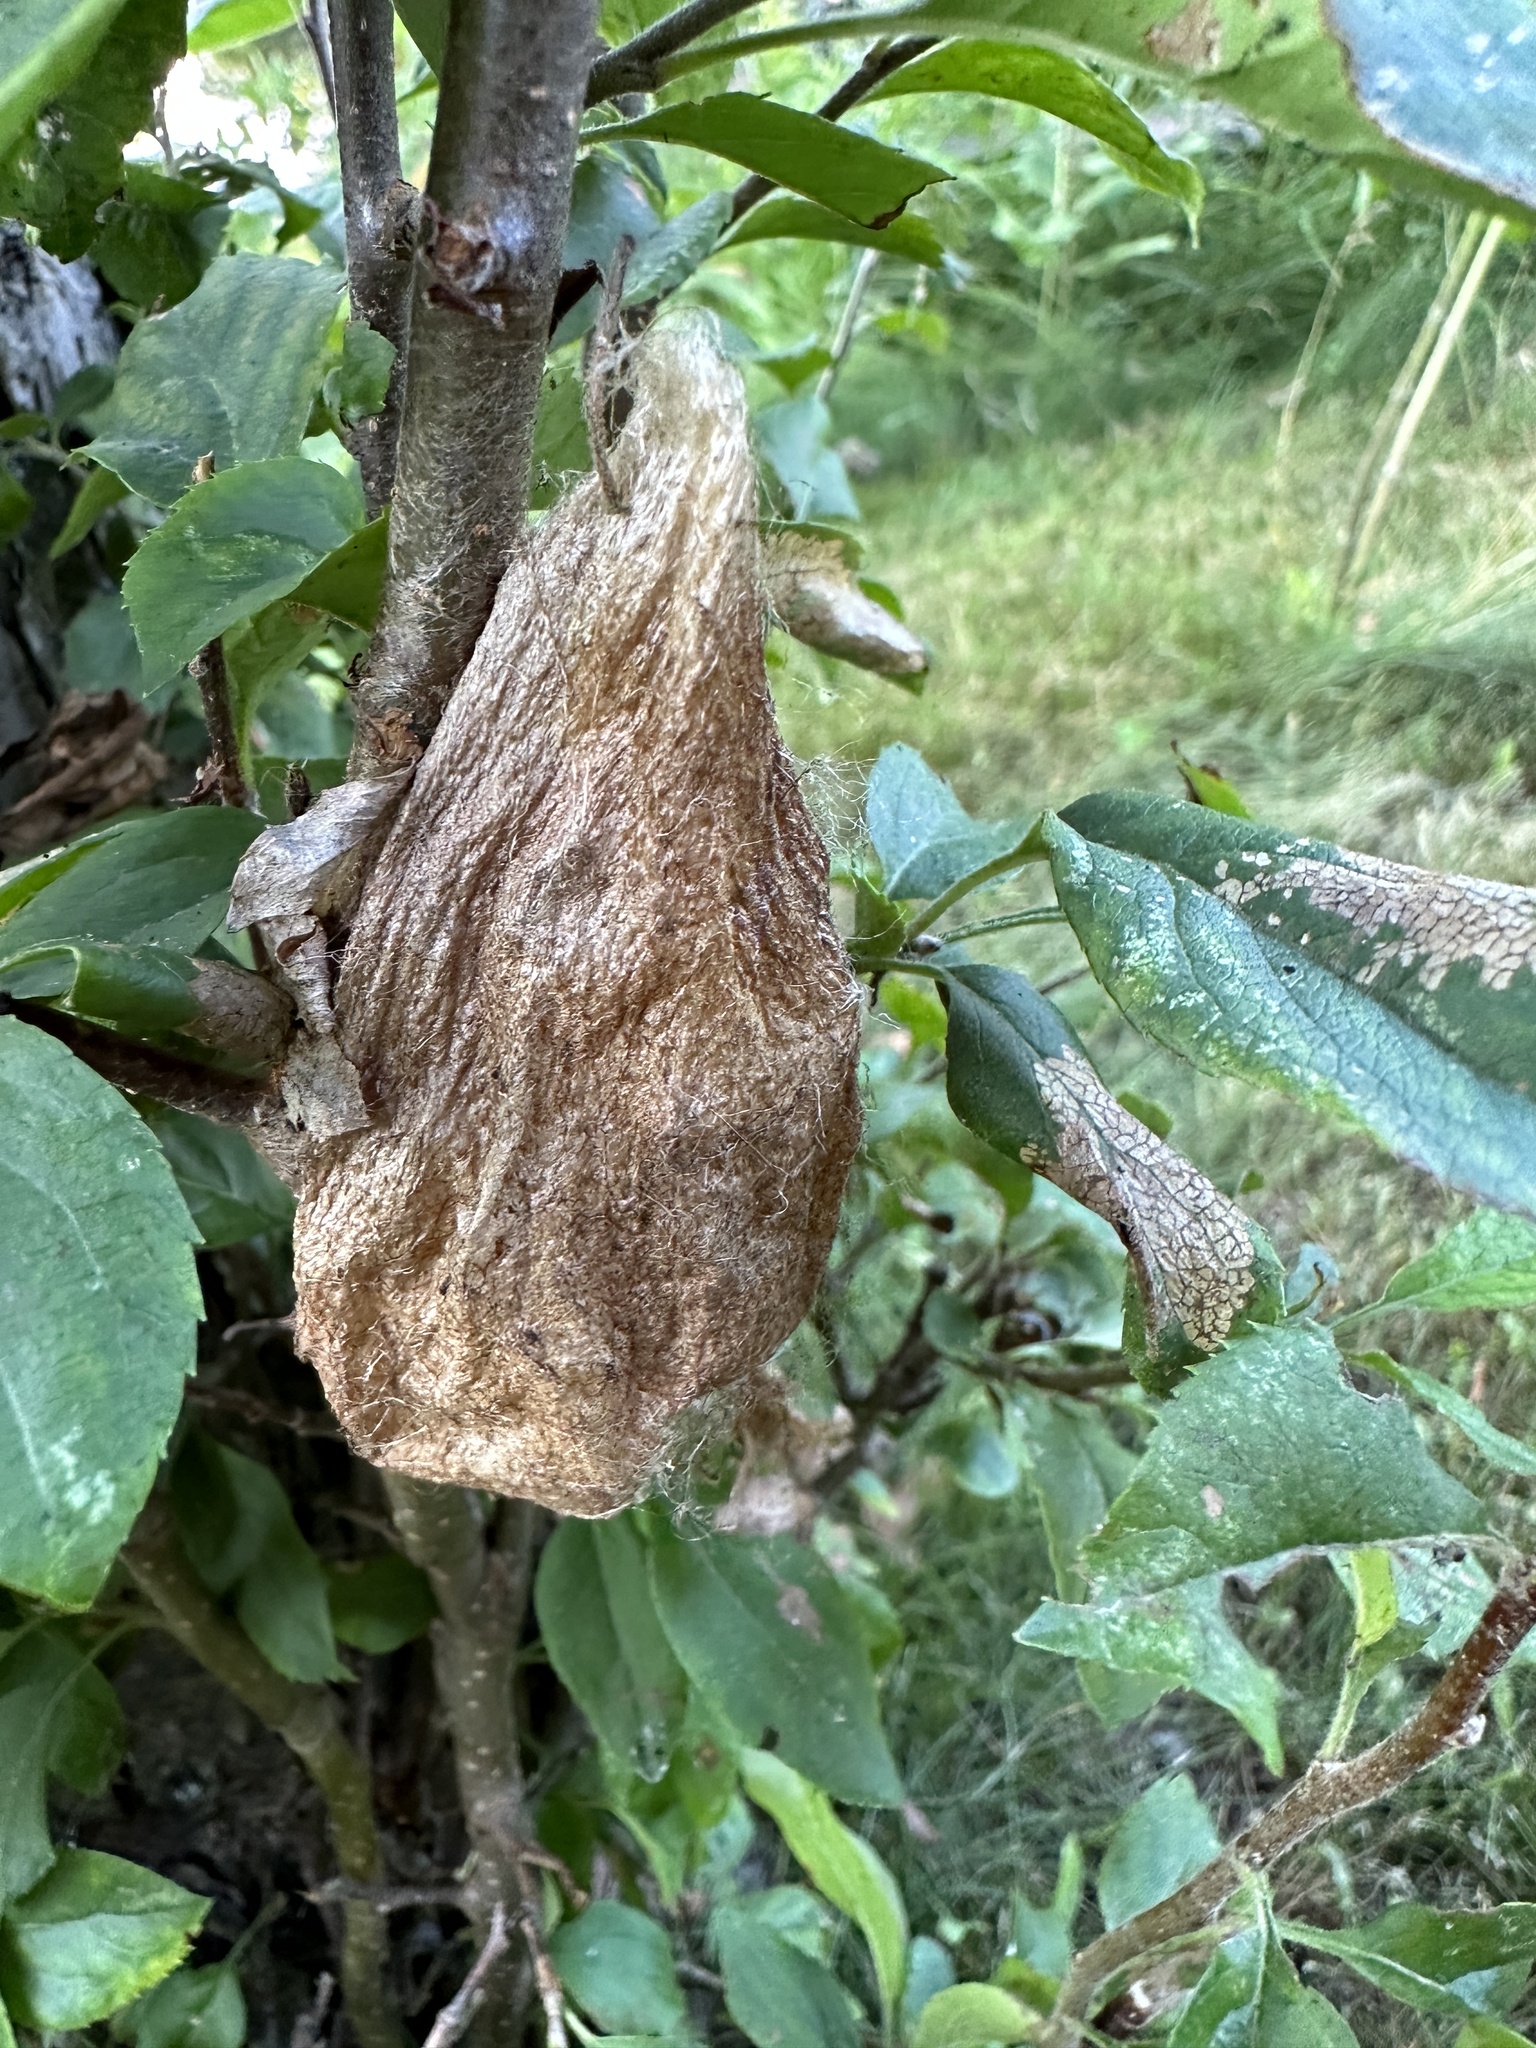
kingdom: Animalia
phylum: Arthropoda
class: Insecta
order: Lepidoptera
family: Saturniidae
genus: Hyalophora
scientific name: Hyalophora cecropia
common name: Cecropia silkmoth
